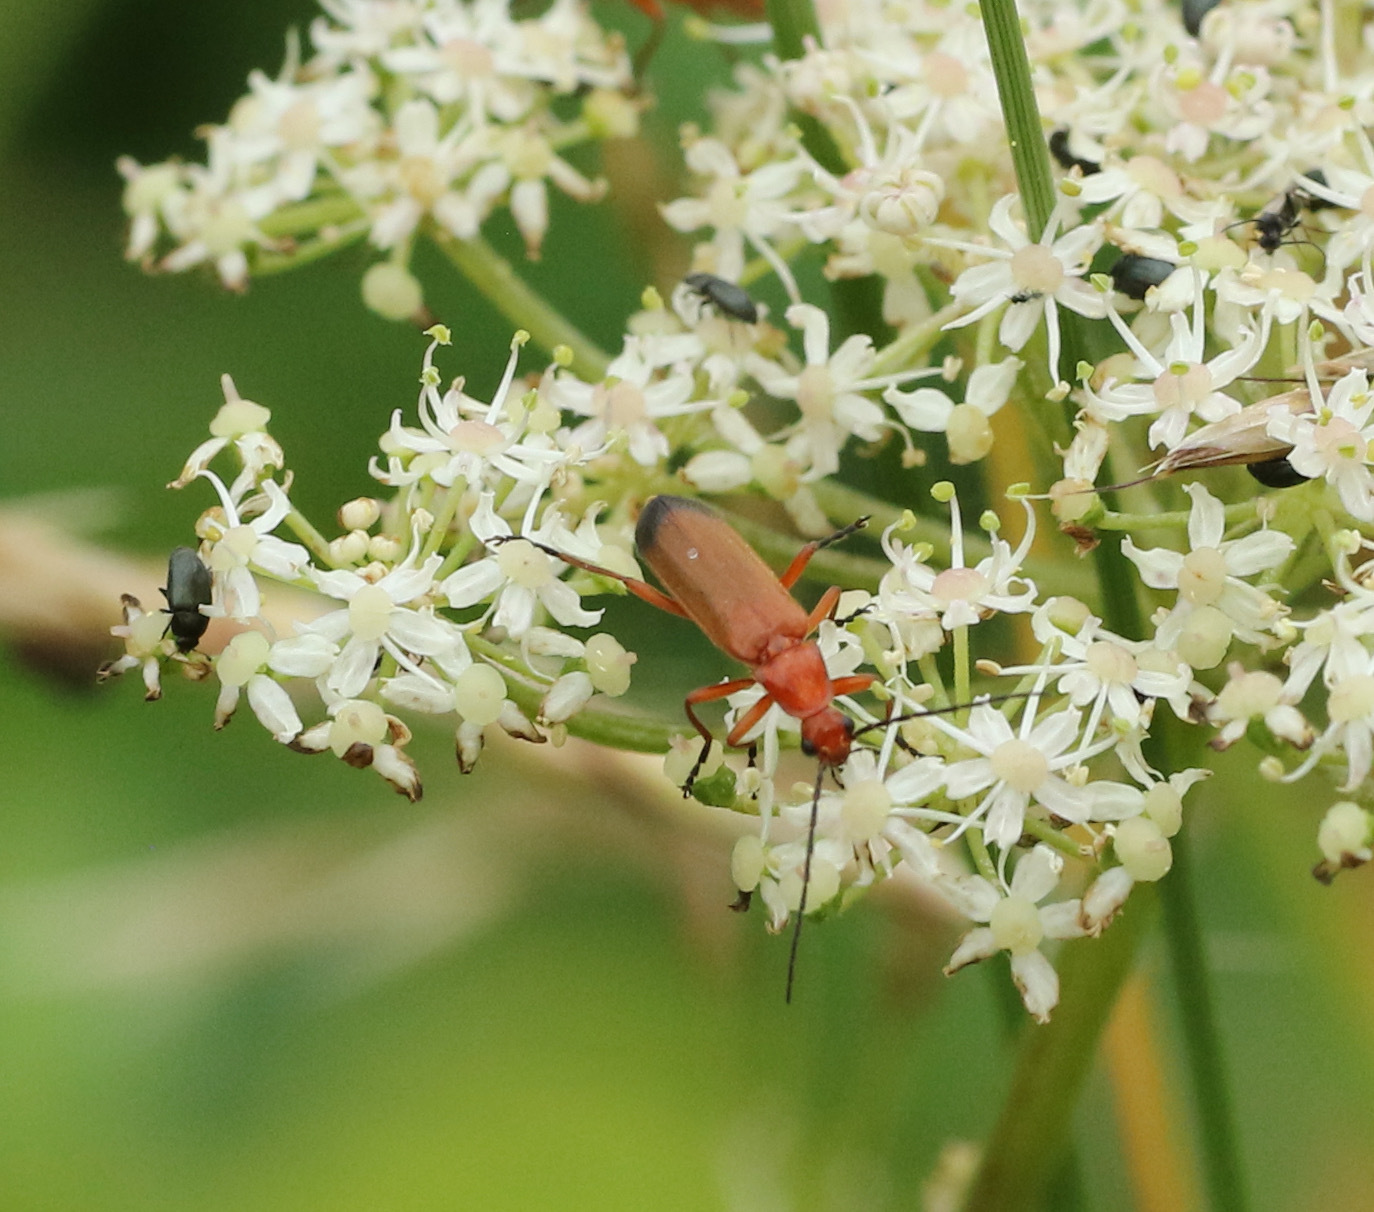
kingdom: Animalia
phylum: Arthropoda
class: Insecta
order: Coleoptera
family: Cantharidae
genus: Rhagonycha
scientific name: Rhagonycha fulva
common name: Common red soldier beetle
